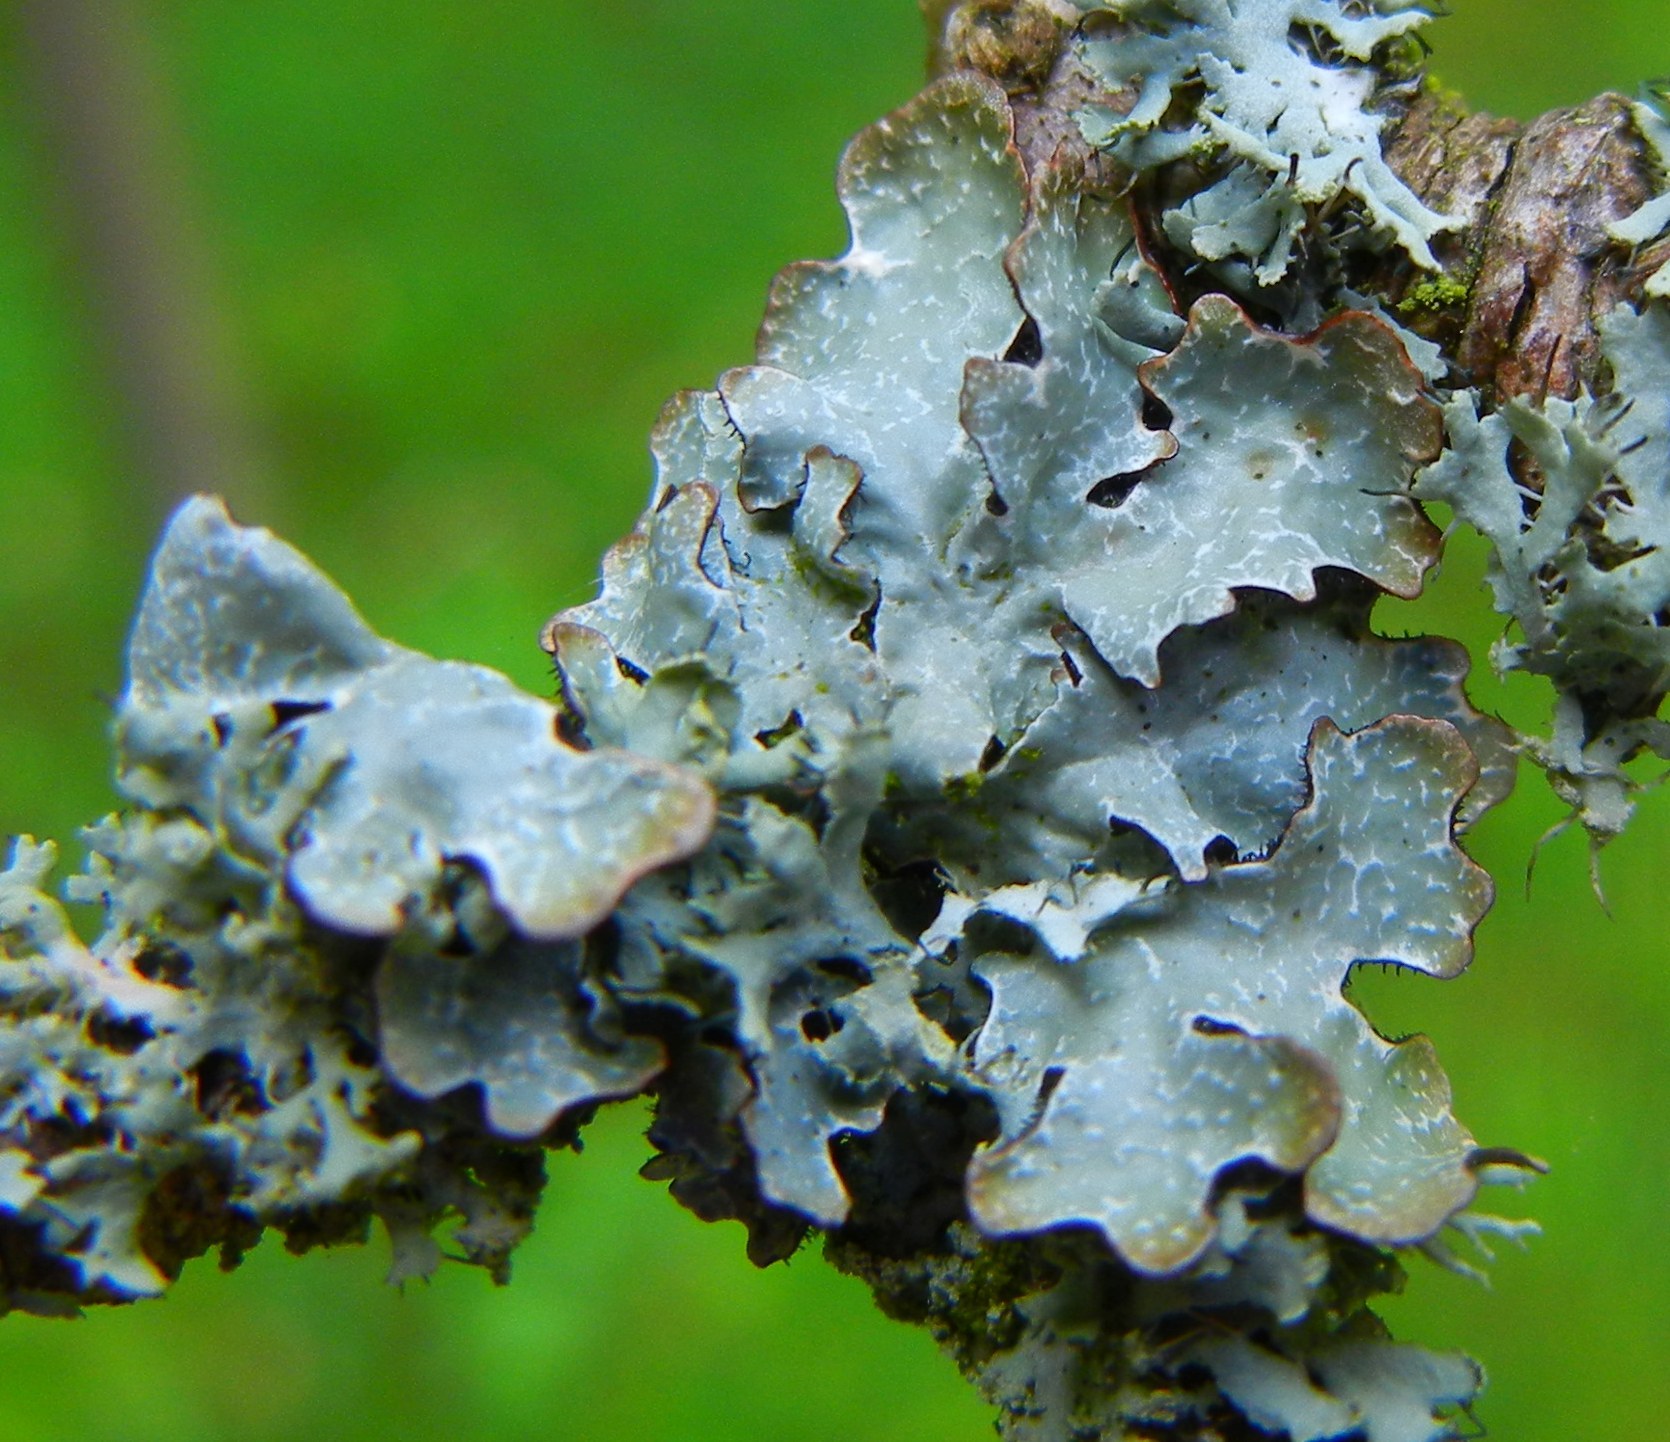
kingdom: Fungi
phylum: Ascomycota
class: Lecanoromycetes
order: Lecanorales
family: Parmeliaceae
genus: Parmelia
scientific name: Parmelia sulcata
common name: Netted shield lichen
